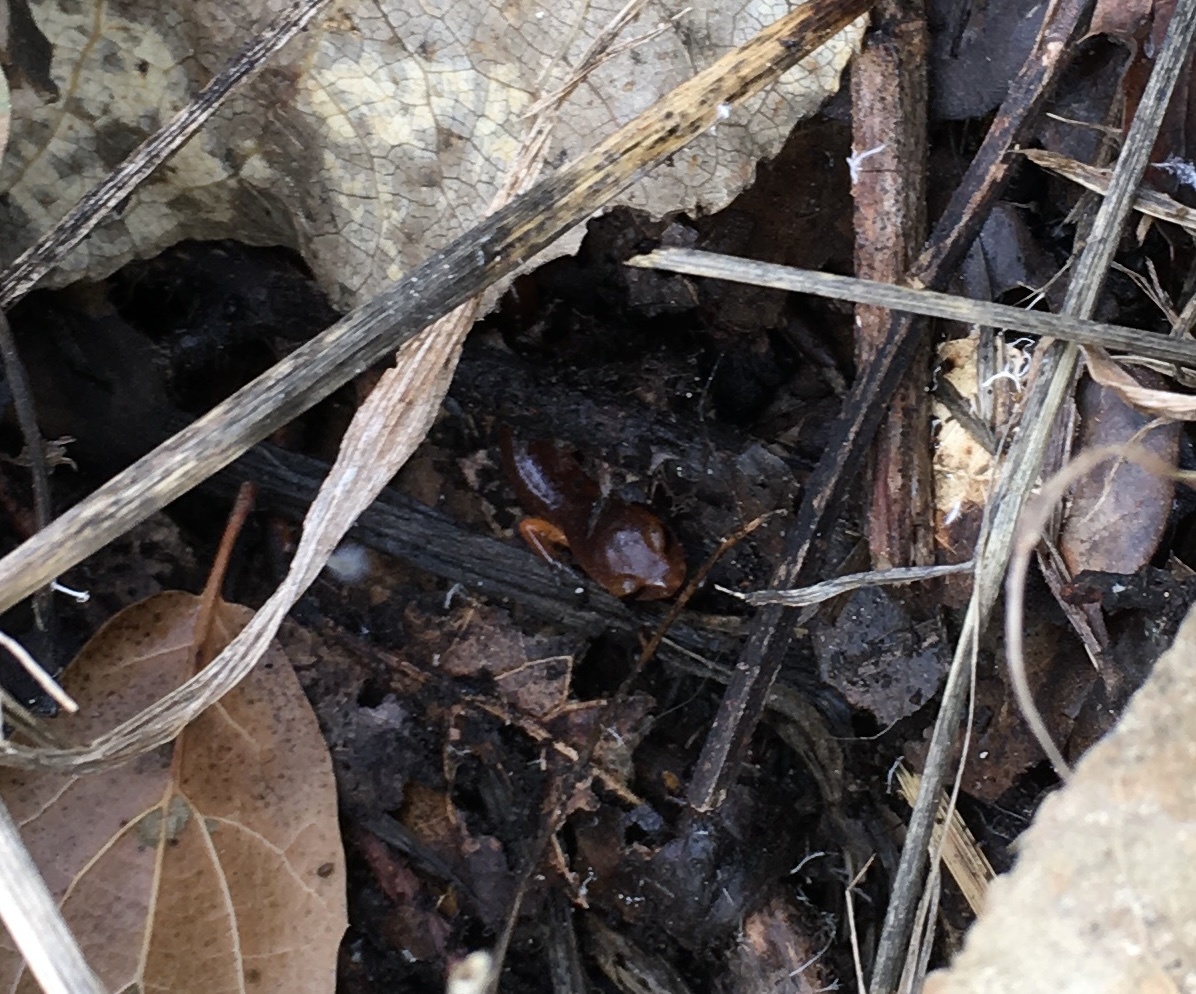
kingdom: Animalia
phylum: Chordata
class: Amphibia
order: Caudata
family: Plethodontidae
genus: Ensatina
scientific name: Ensatina eschscholtzii
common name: Ensatina
